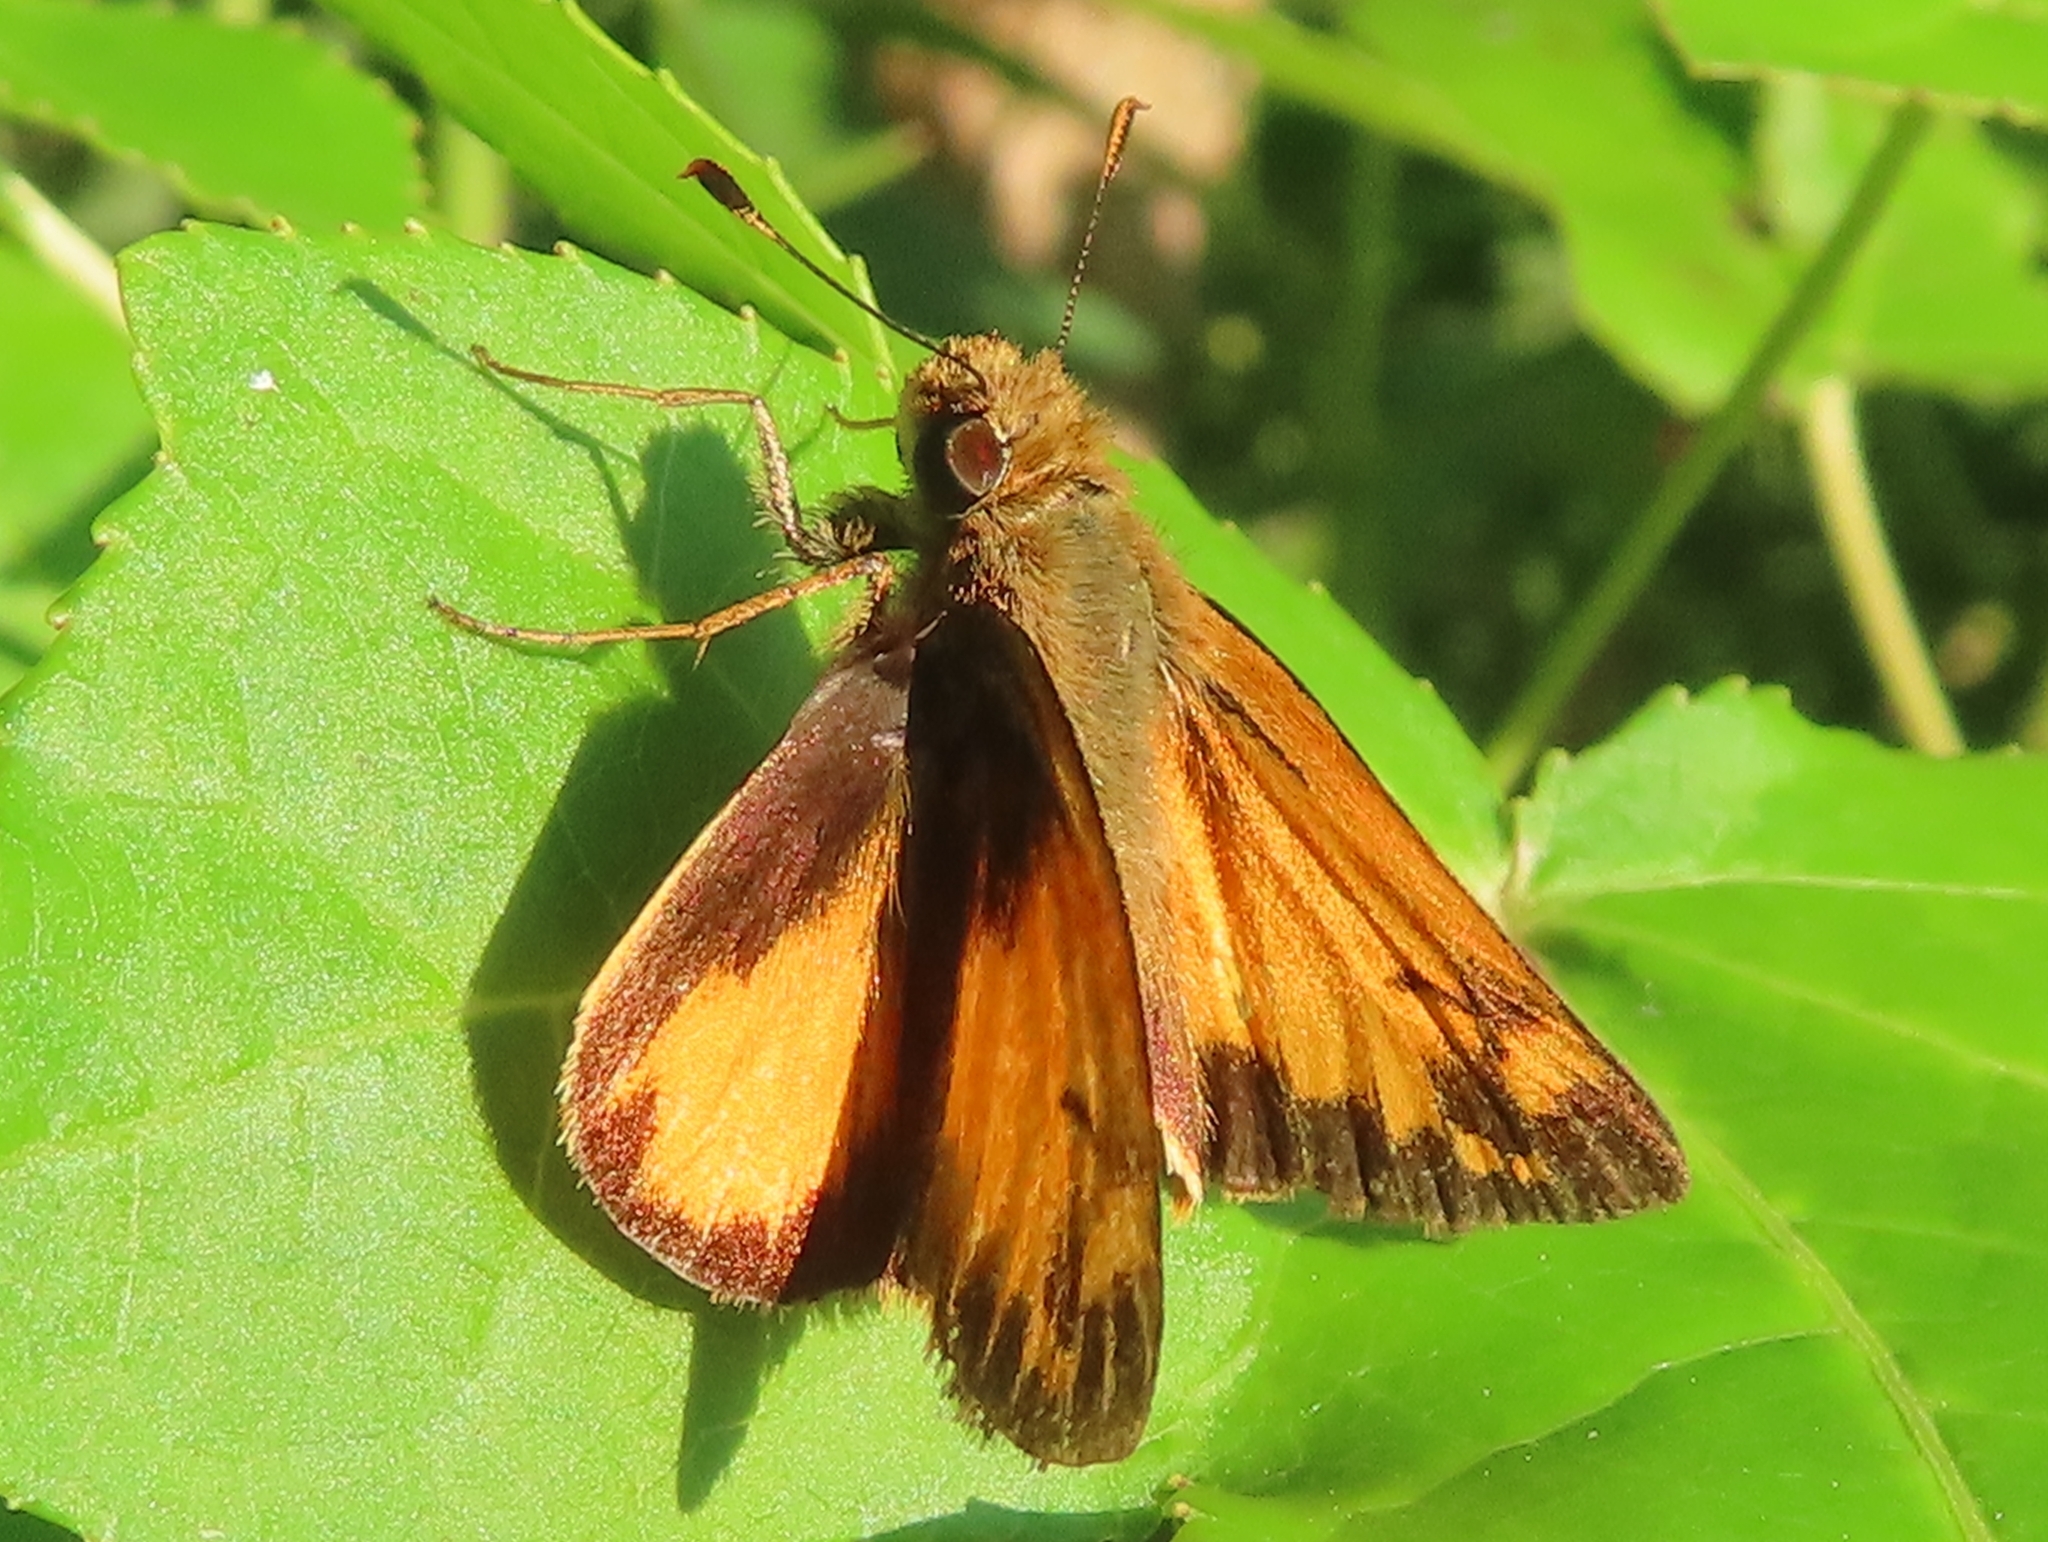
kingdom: Animalia
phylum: Arthropoda
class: Insecta
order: Lepidoptera
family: Hesperiidae
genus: Lon
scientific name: Lon zabulon
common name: Zabulon skipper
